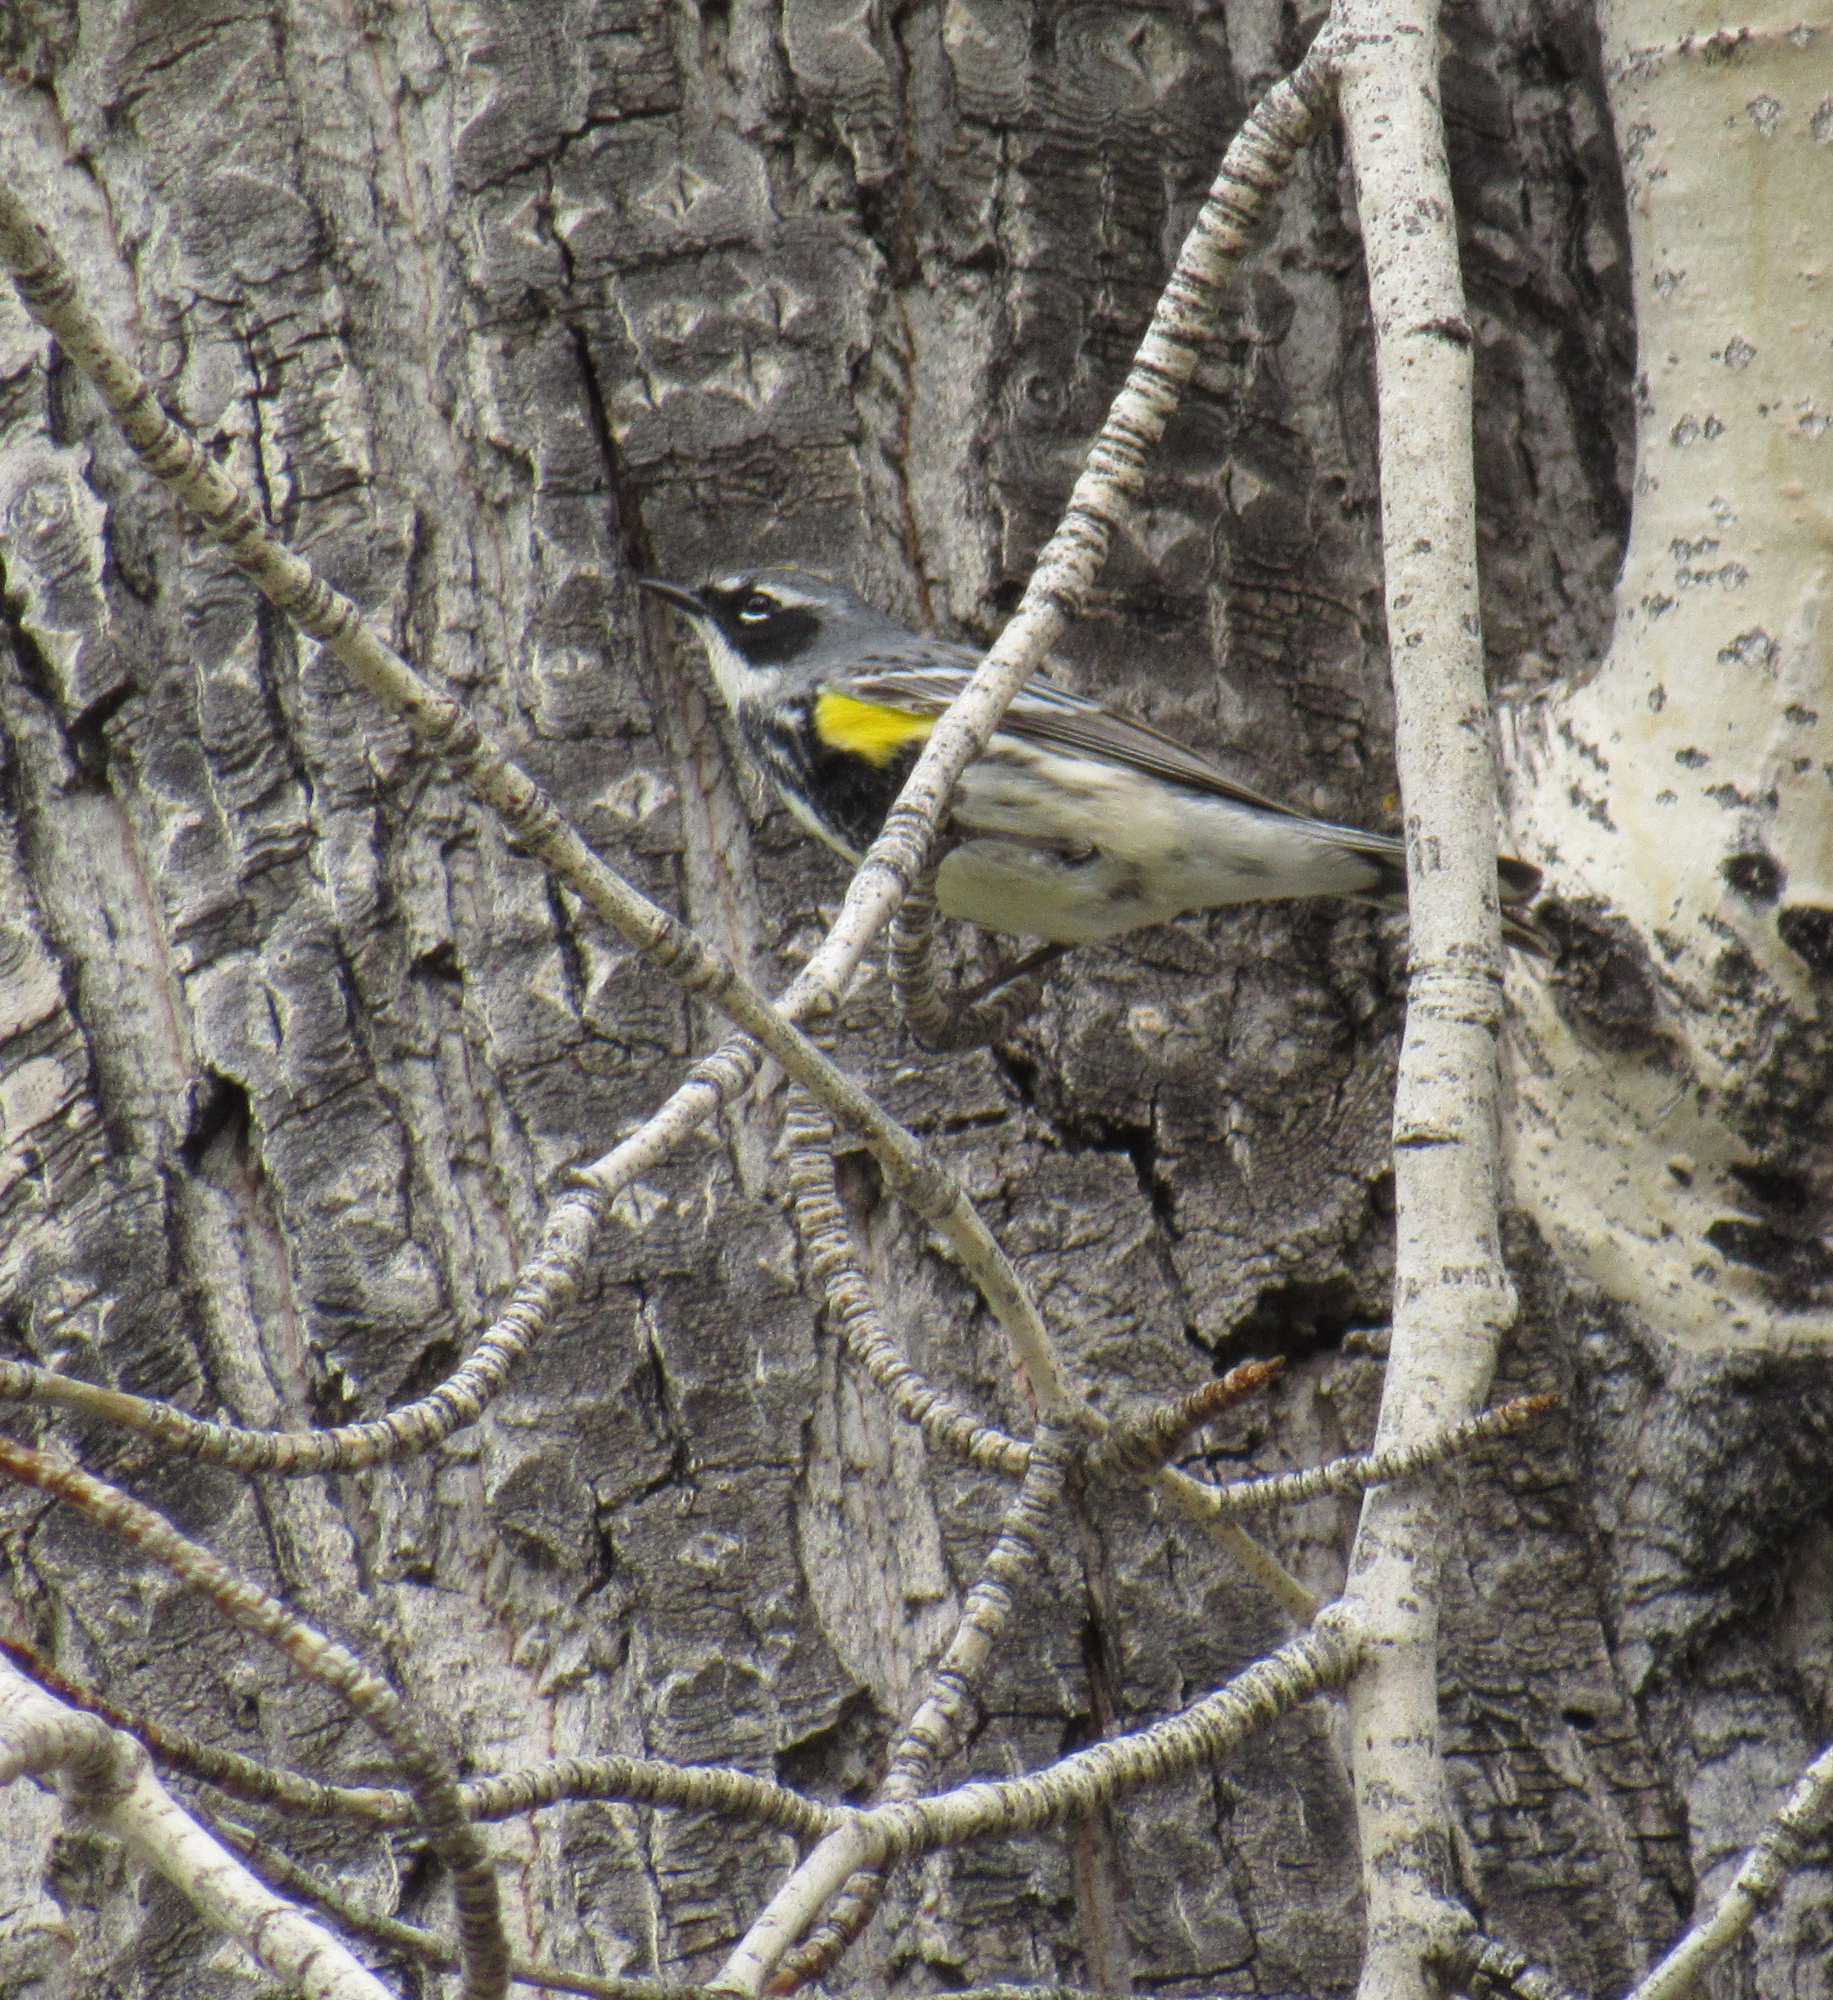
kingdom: Animalia
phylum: Chordata
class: Aves
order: Passeriformes
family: Parulidae
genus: Setophaga
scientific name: Setophaga coronata
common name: Myrtle warbler
